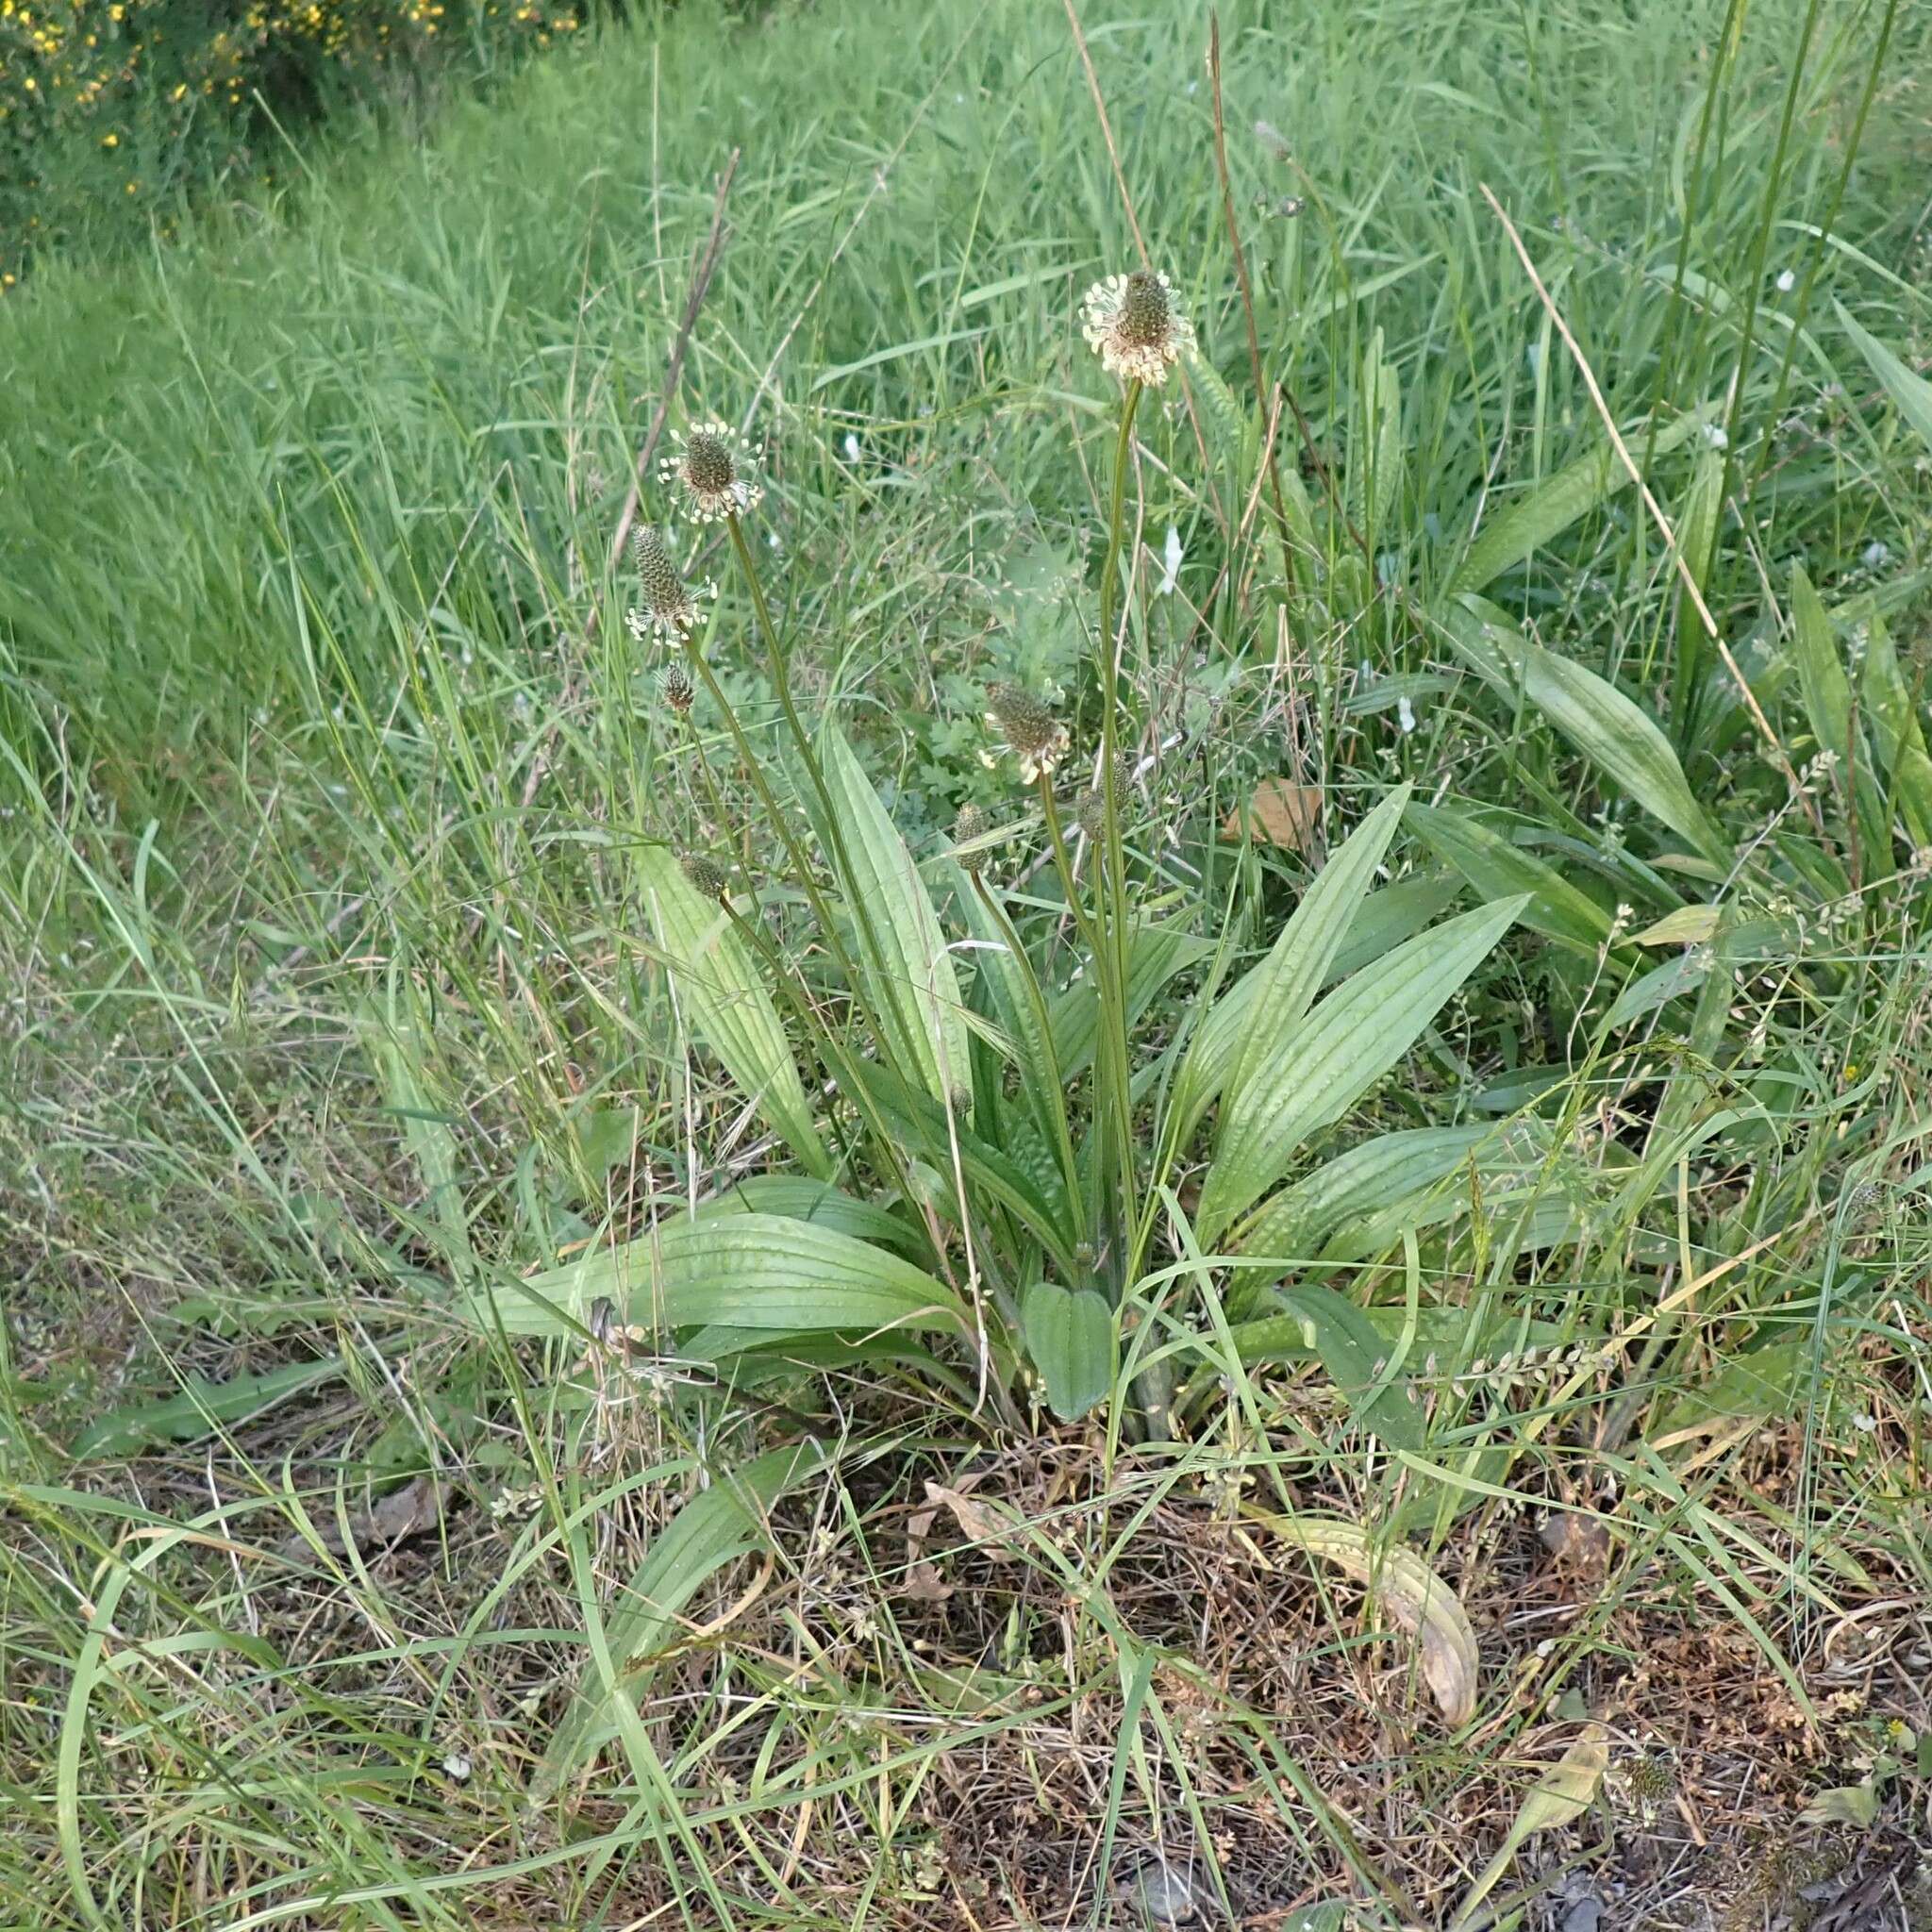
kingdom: Plantae
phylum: Tracheophyta
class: Magnoliopsida
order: Lamiales
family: Plantaginaceae
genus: Plantago
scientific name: Plantago lanceolata
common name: Ribwort plantain
